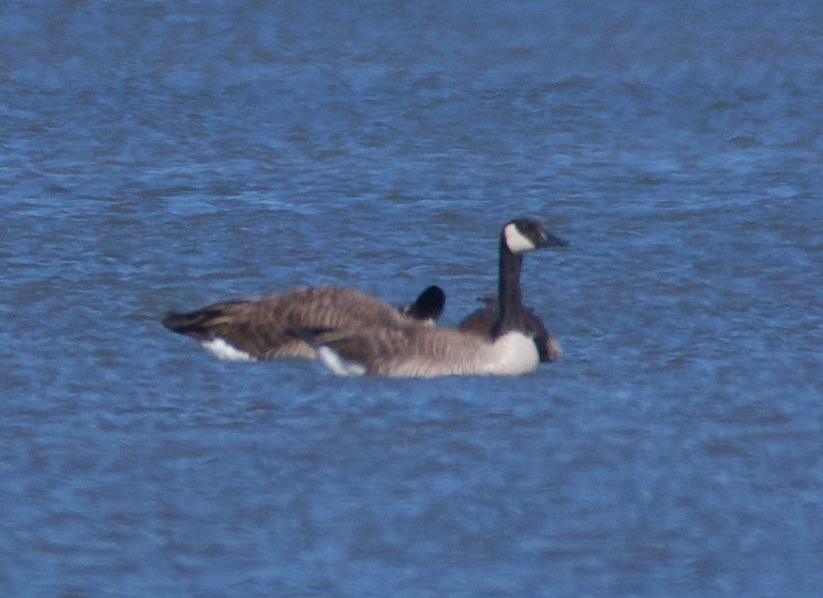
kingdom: Animalia
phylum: Chordata
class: Aves
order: Anseriformes
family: Anatidae
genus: Branta
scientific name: Branta canadensis
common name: Canada goose
